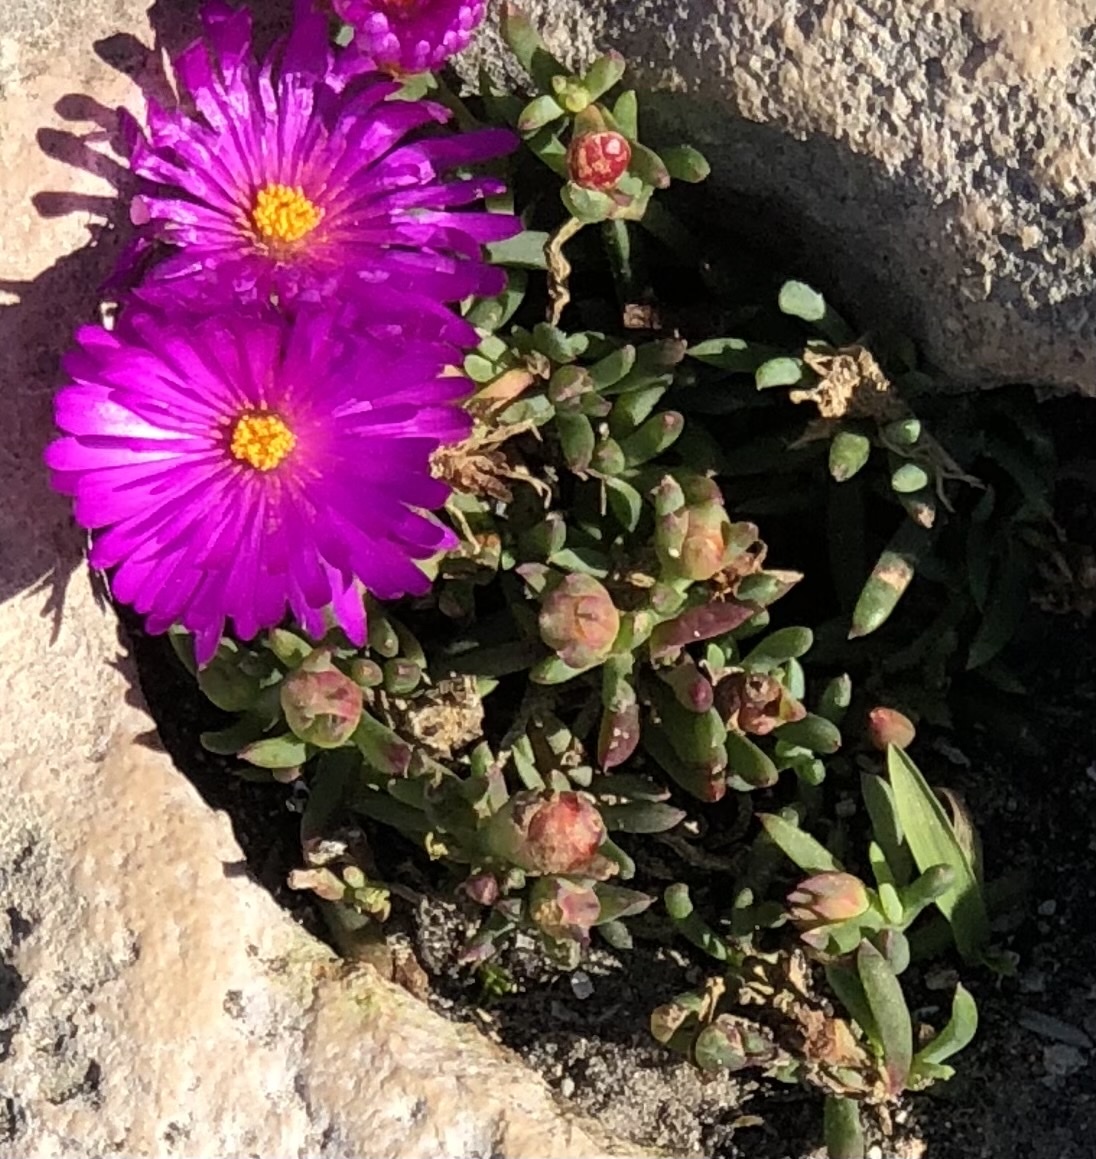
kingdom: Plantae
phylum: Tracheophyta
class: Magnoliopsida
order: Caryophyllales
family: Aizoaceae
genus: Lampranthus
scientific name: Lampranthus ceriseus
